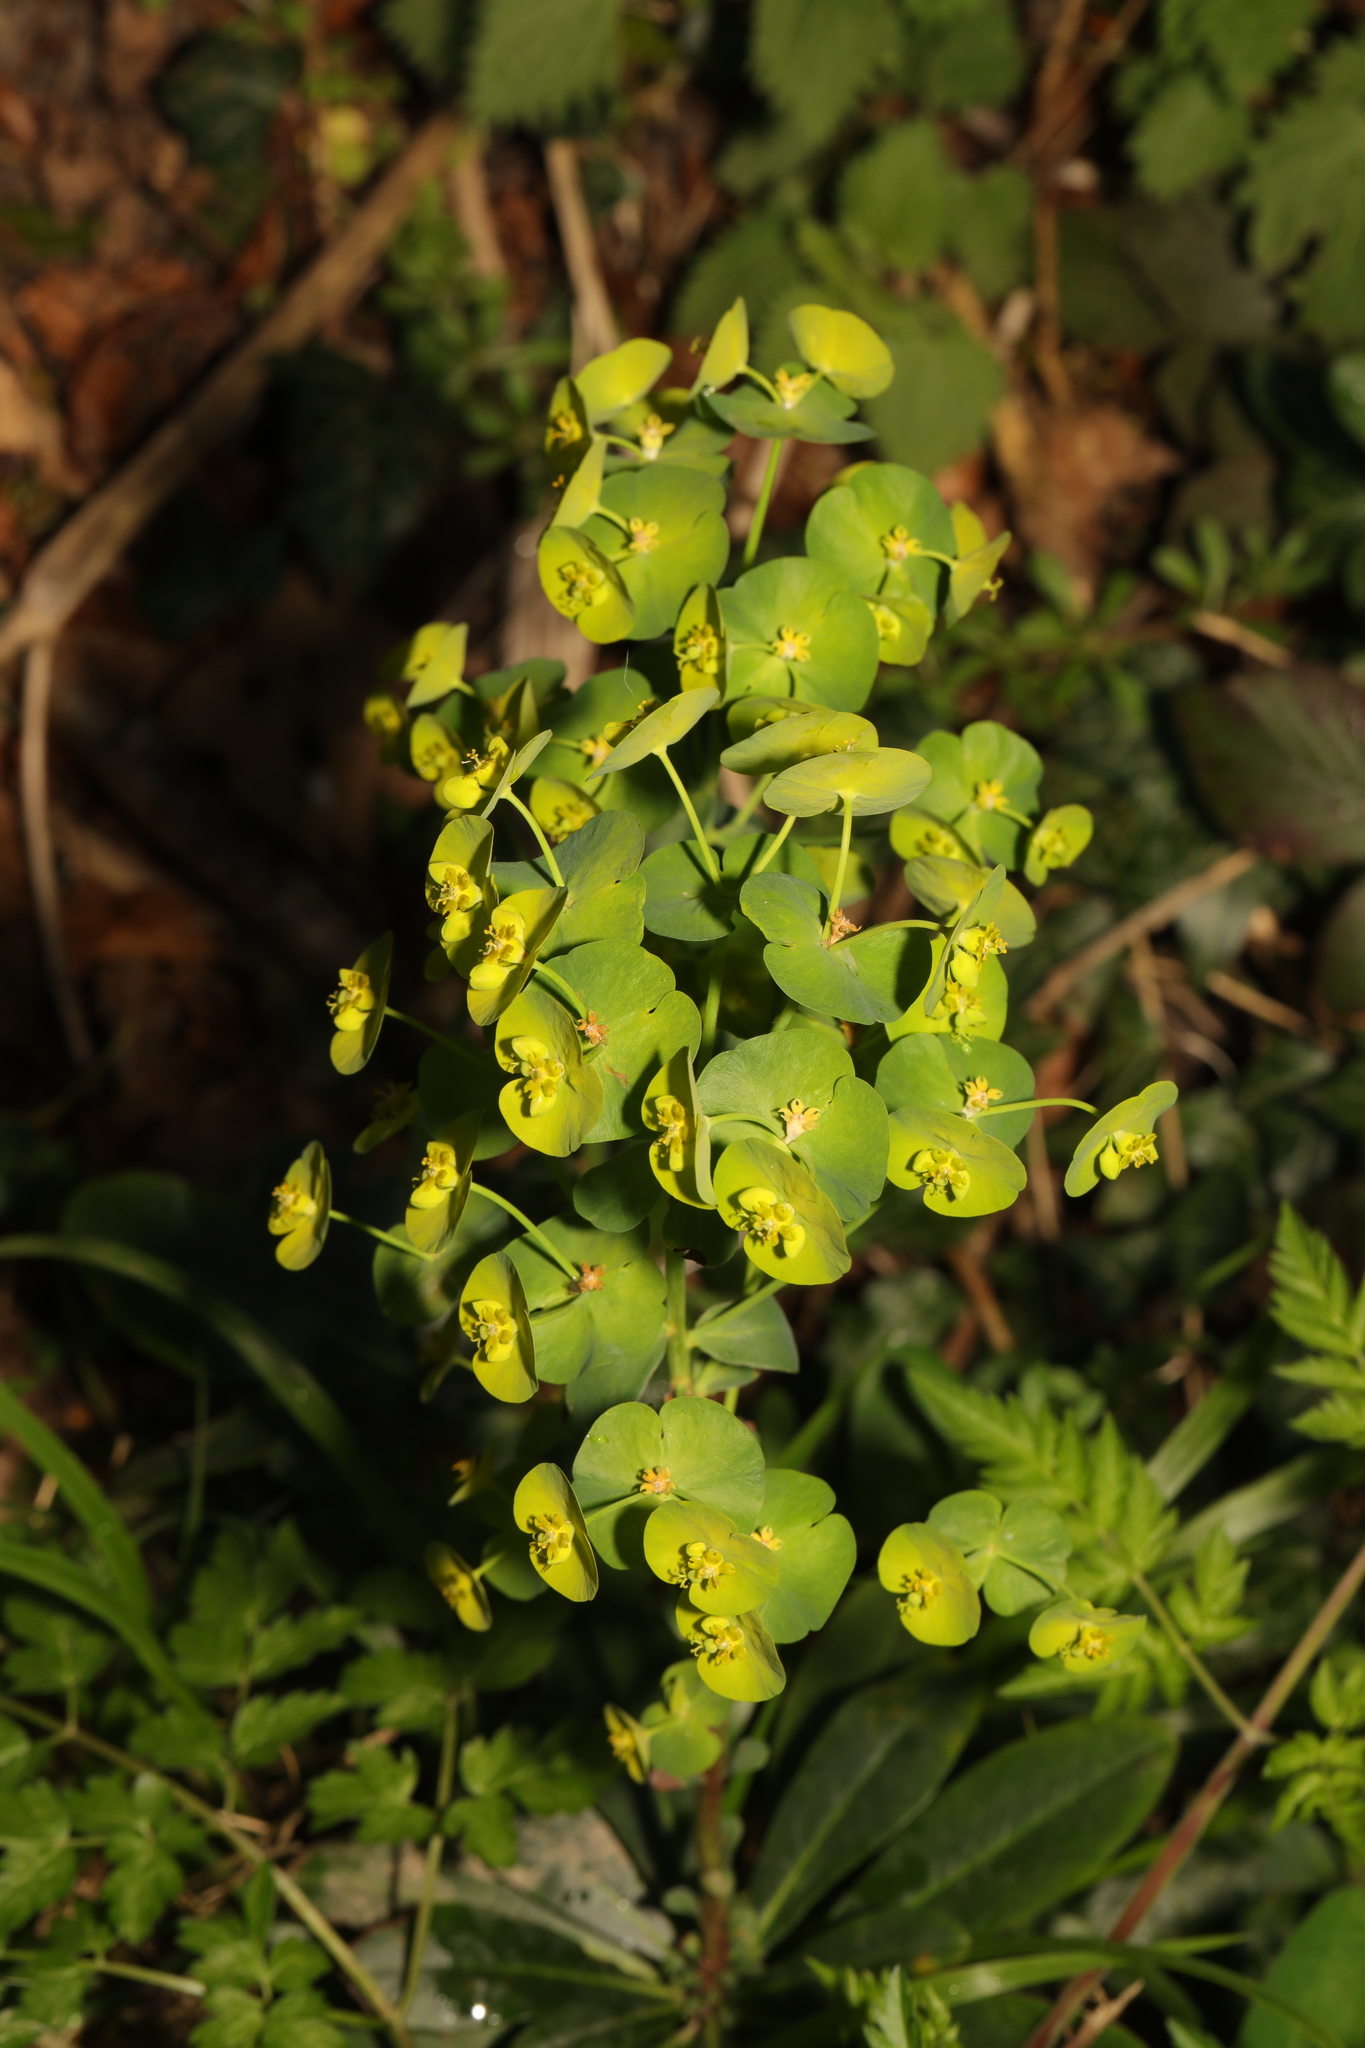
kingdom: Plantae
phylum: Tracheophyta
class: Magnoliopsida
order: Malpighiales
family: Euphorbiaceae
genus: Euphorbia
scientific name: Euphorbia amygdaloides
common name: Wood spurge
